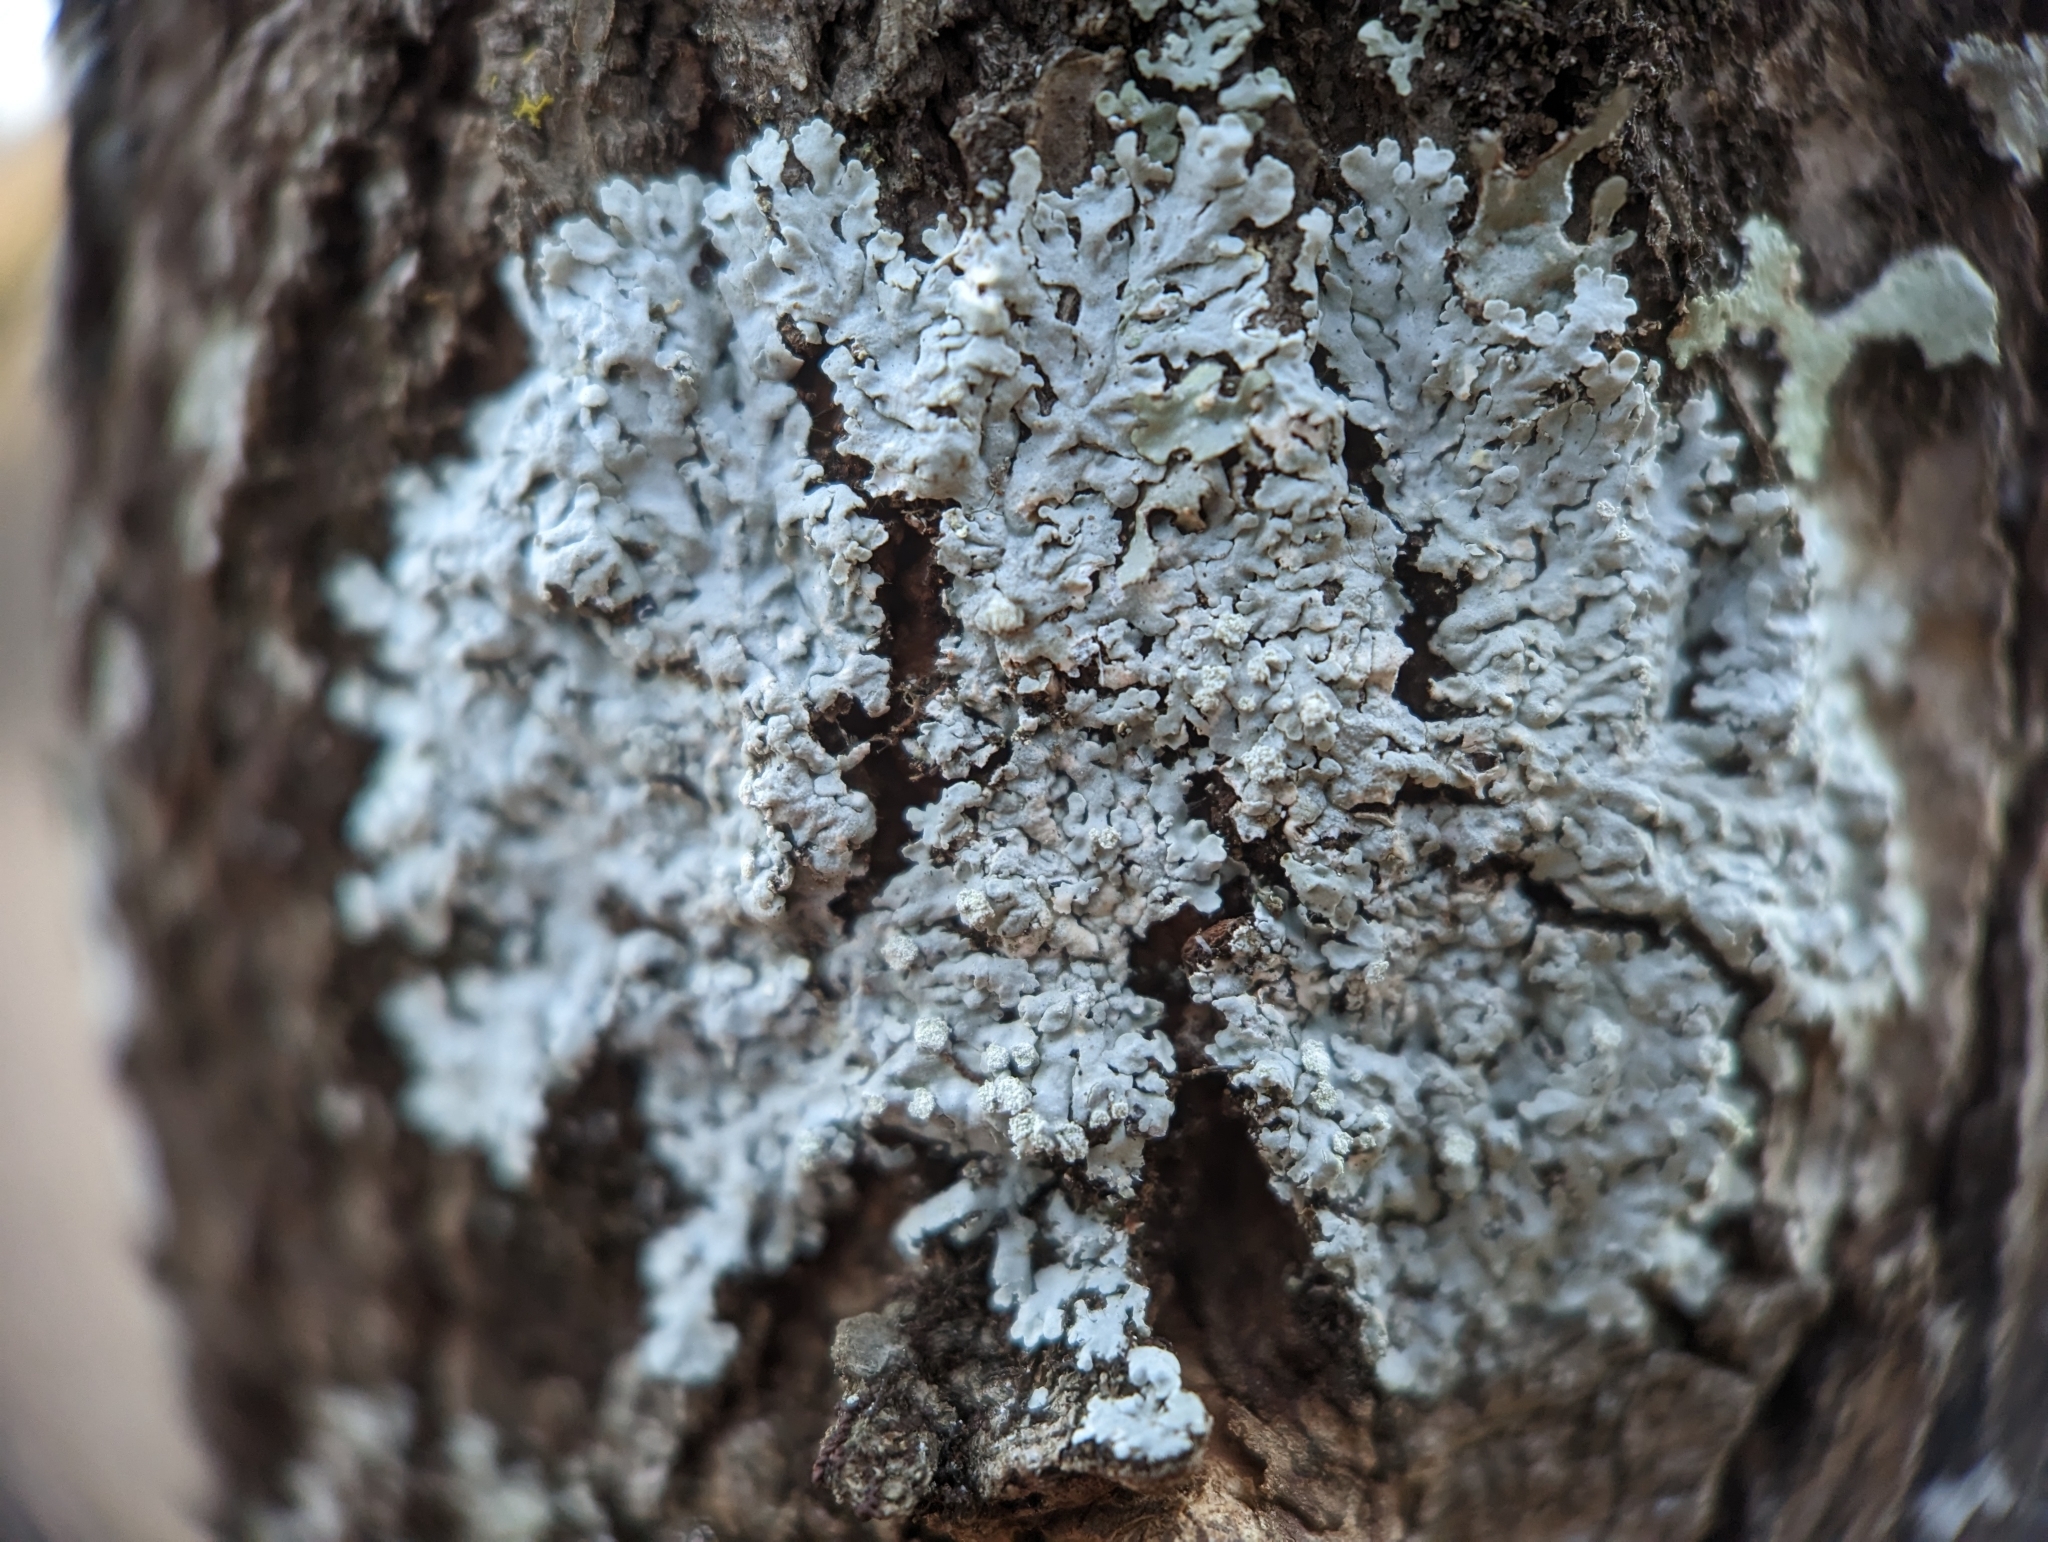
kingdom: Fungi
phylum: Ascomycota
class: Lecanoromycetes
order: Caliciales
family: Physciaceae
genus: Physcia
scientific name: Physcia americana
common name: American rosette lichen
